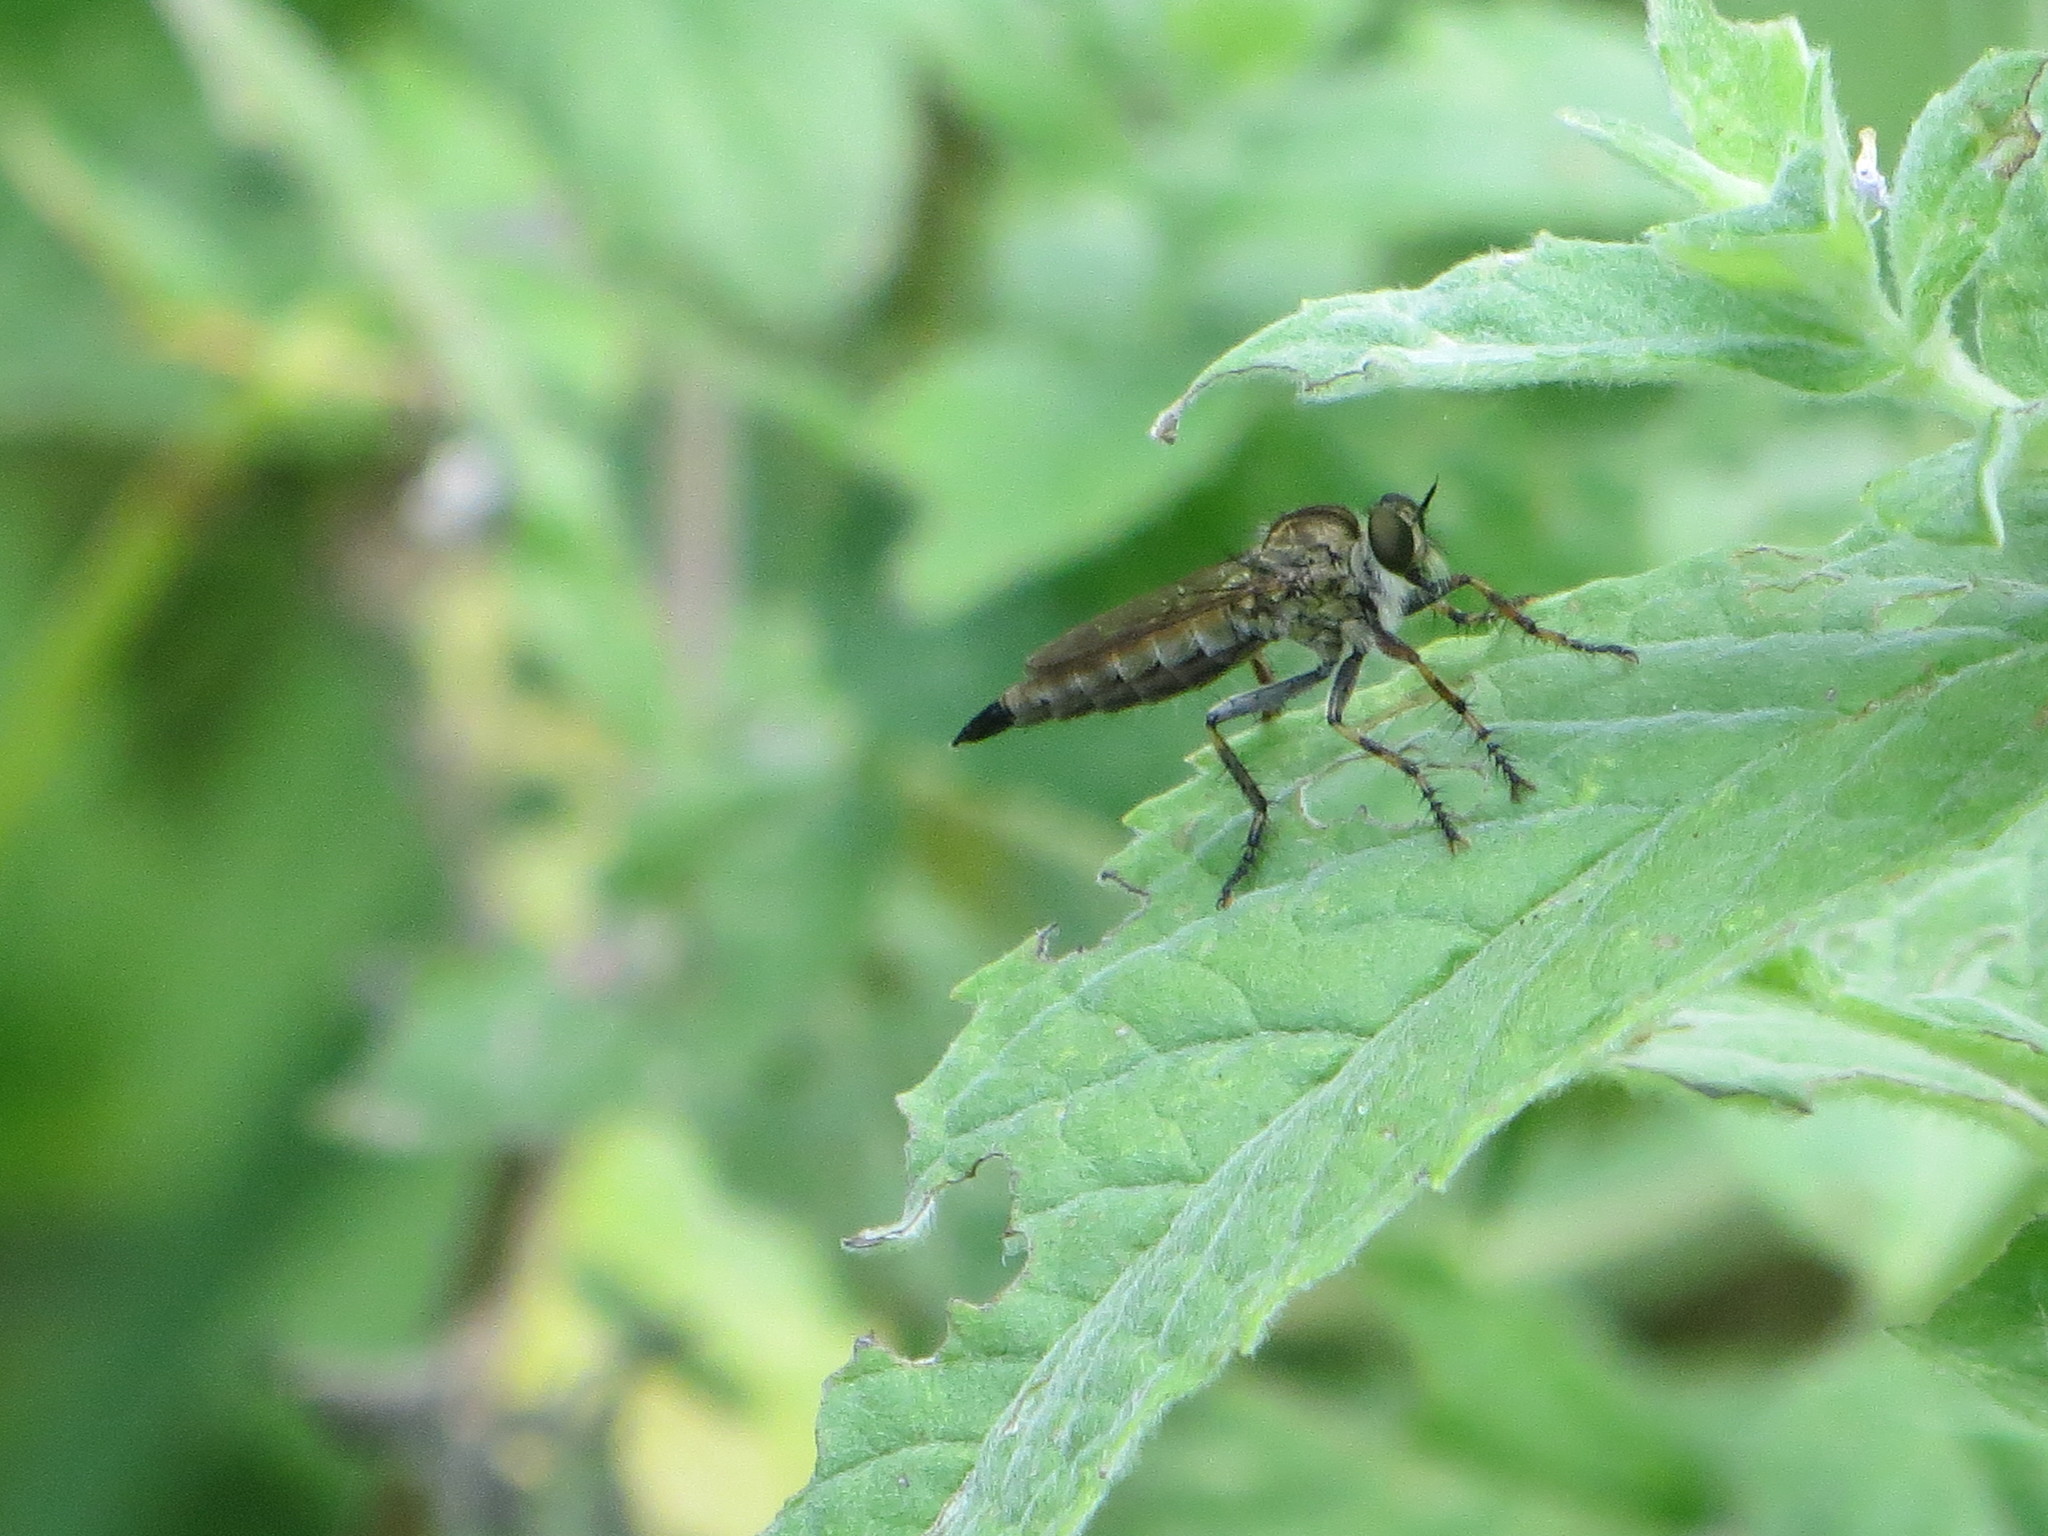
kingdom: Animalia
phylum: Arthropoda
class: Insecta
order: Diptera
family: Asilidae
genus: Epitriptus
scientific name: Epitriptus cingulatus
